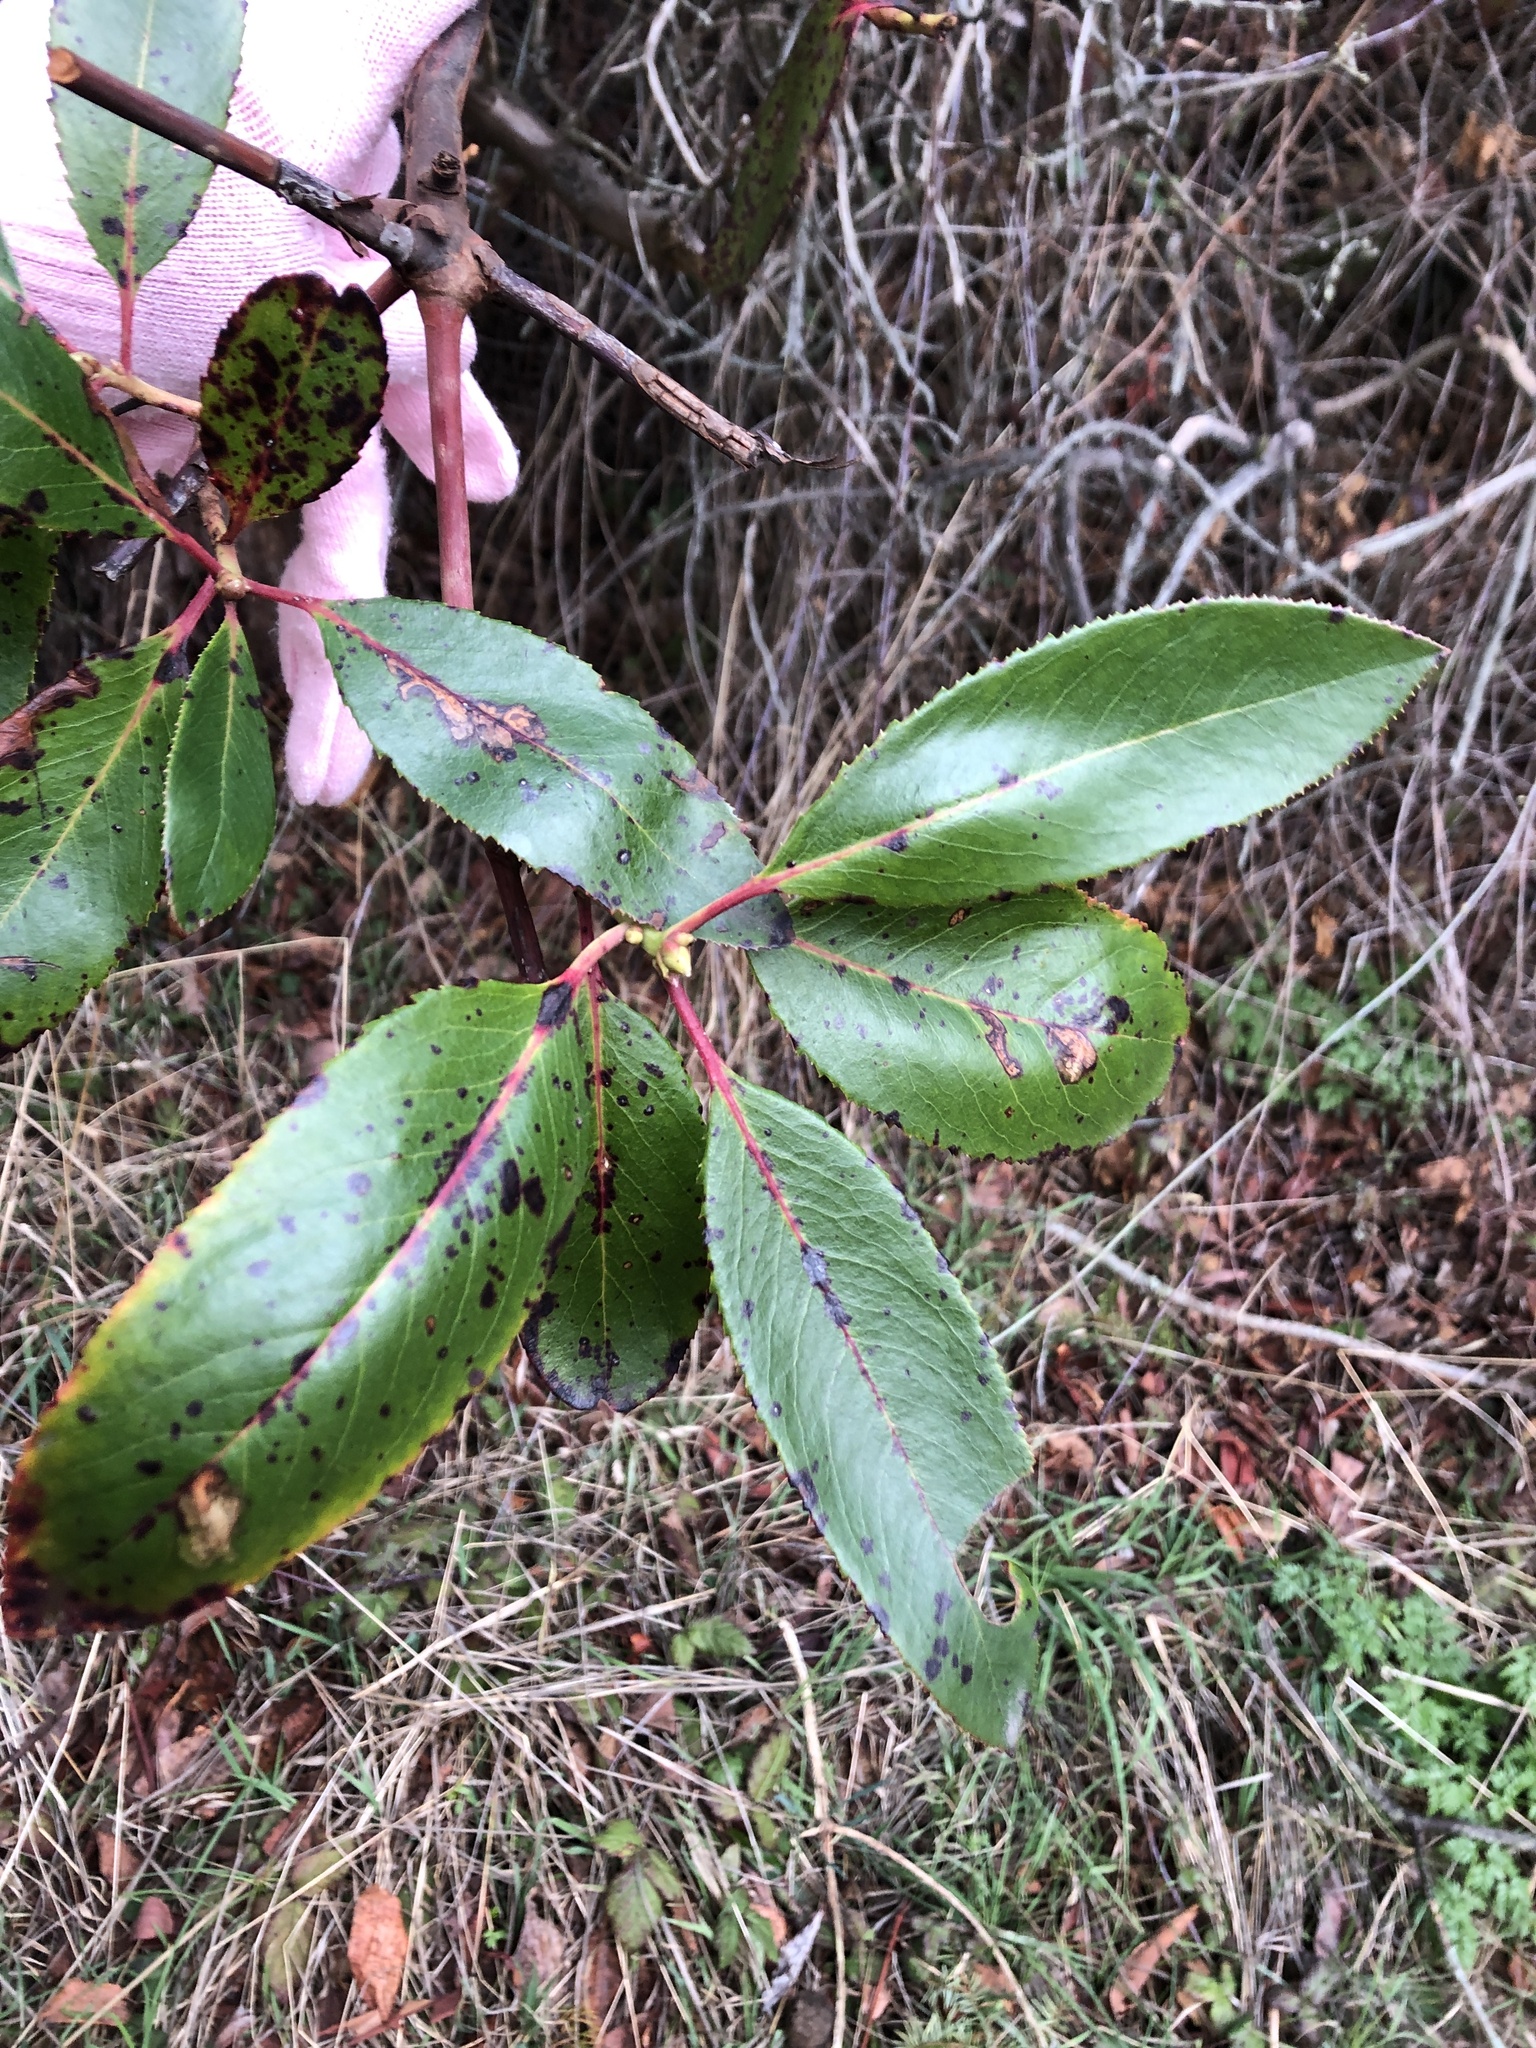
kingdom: Plantae
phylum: Tracheophyta
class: Magnoliopsida
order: Ericales
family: Ericaceae
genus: Arbutus
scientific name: Arbutus menziesii
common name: Pacific madrone
